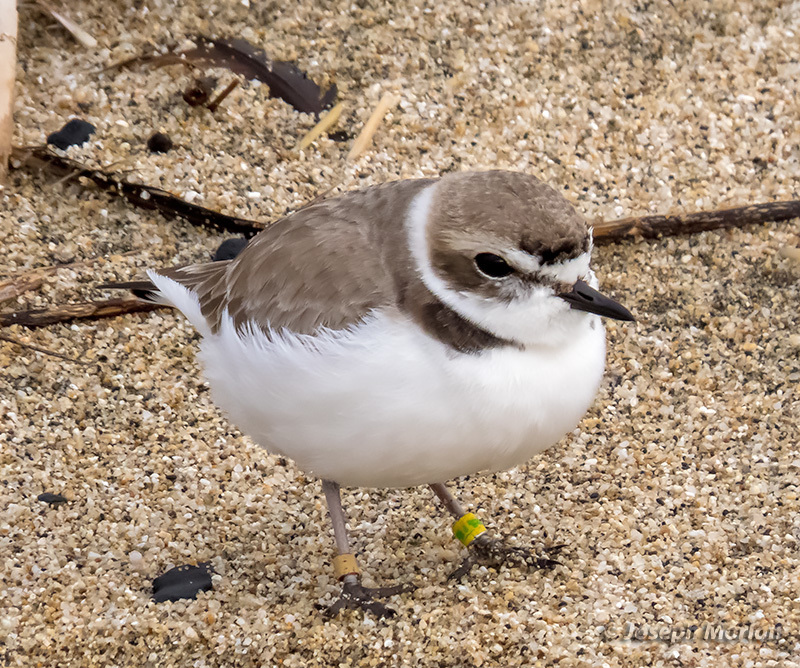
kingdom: Animalia
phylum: Chordata
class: Aves
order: Charadriiformes
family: Charadriidae
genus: Anarhynchus
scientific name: Anarhynchus
